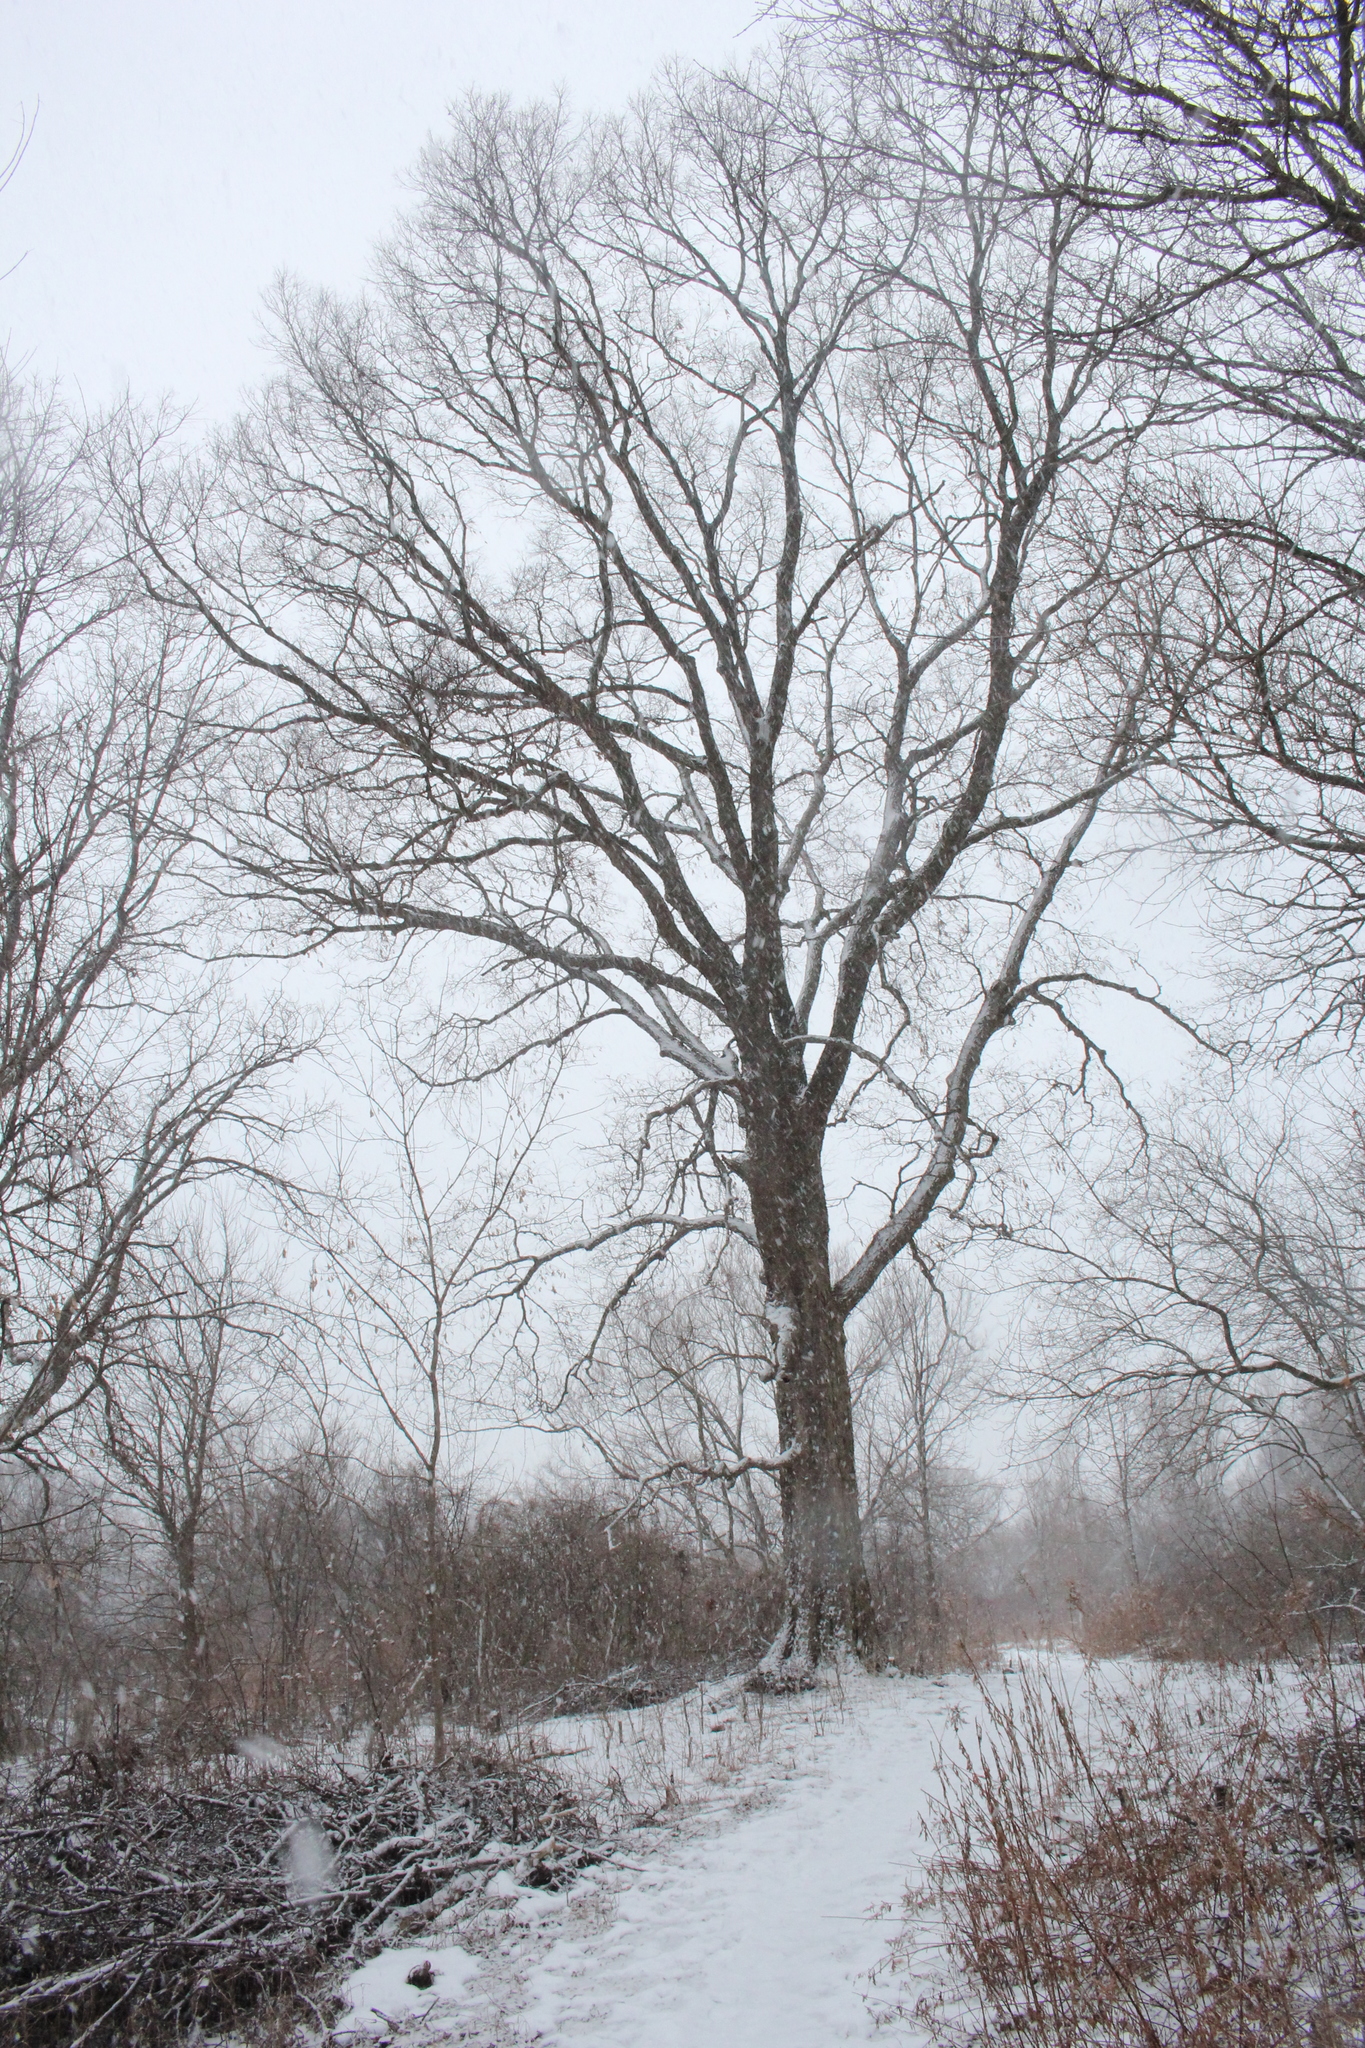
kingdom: Plantae
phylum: Tracheophyta
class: Magnoliopsida
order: Rosales
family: Cannabaceae
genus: Celtis
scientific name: Celtis occidentalis
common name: Common hackberry
